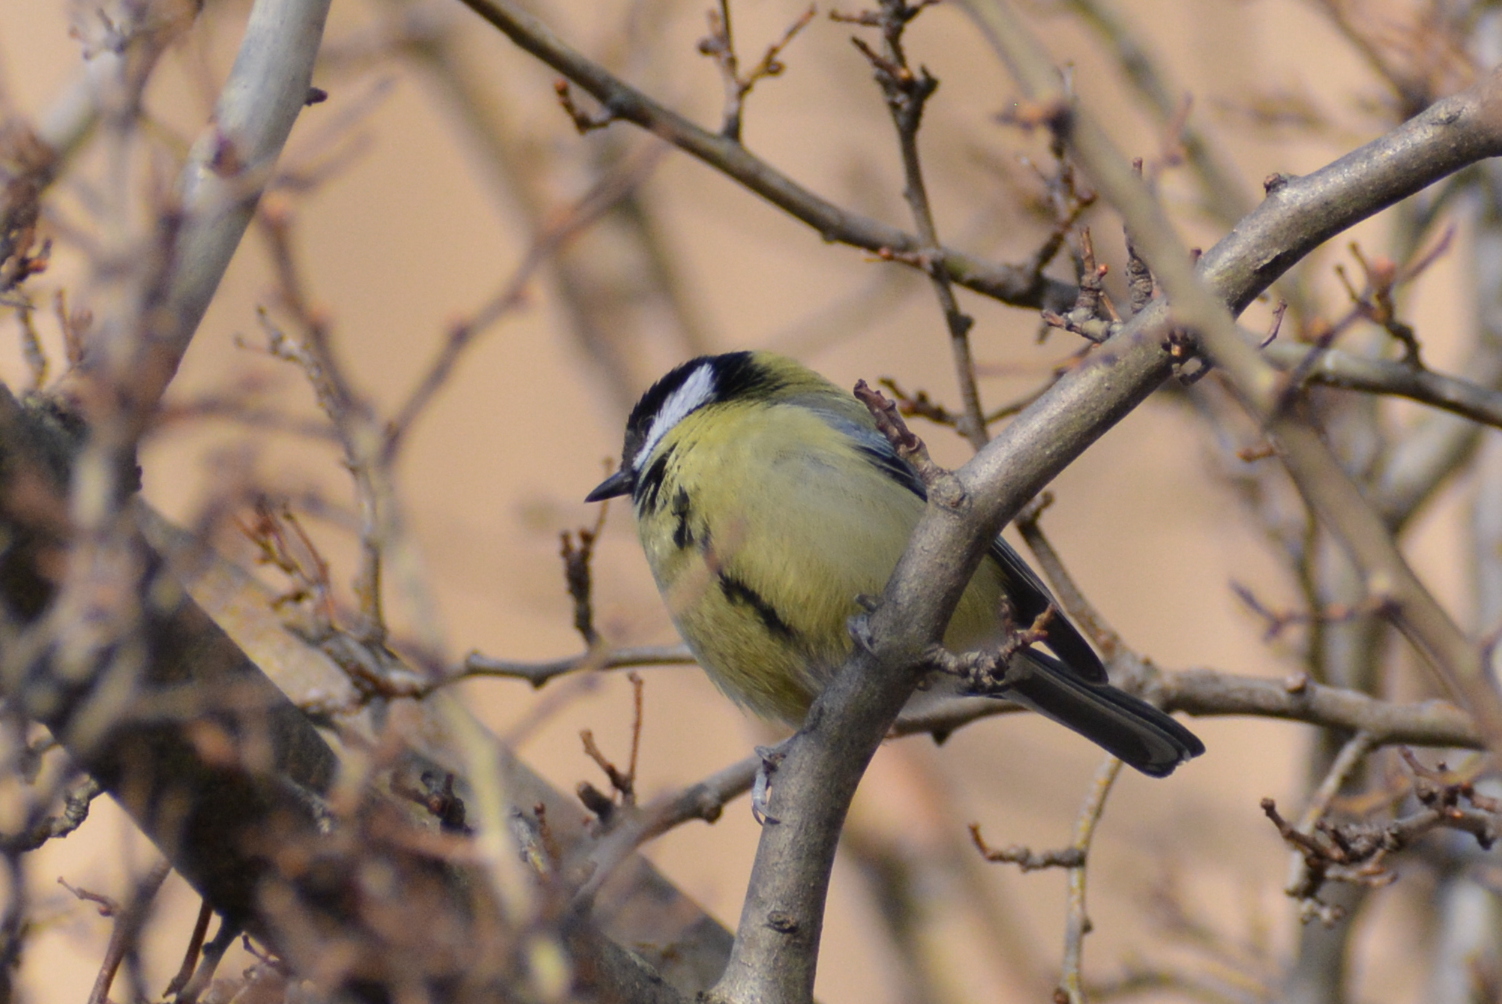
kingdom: Animalia
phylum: Chordata
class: Aves
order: Passeriformes
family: Paridae
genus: Parus
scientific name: Parus major
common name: Great tit
